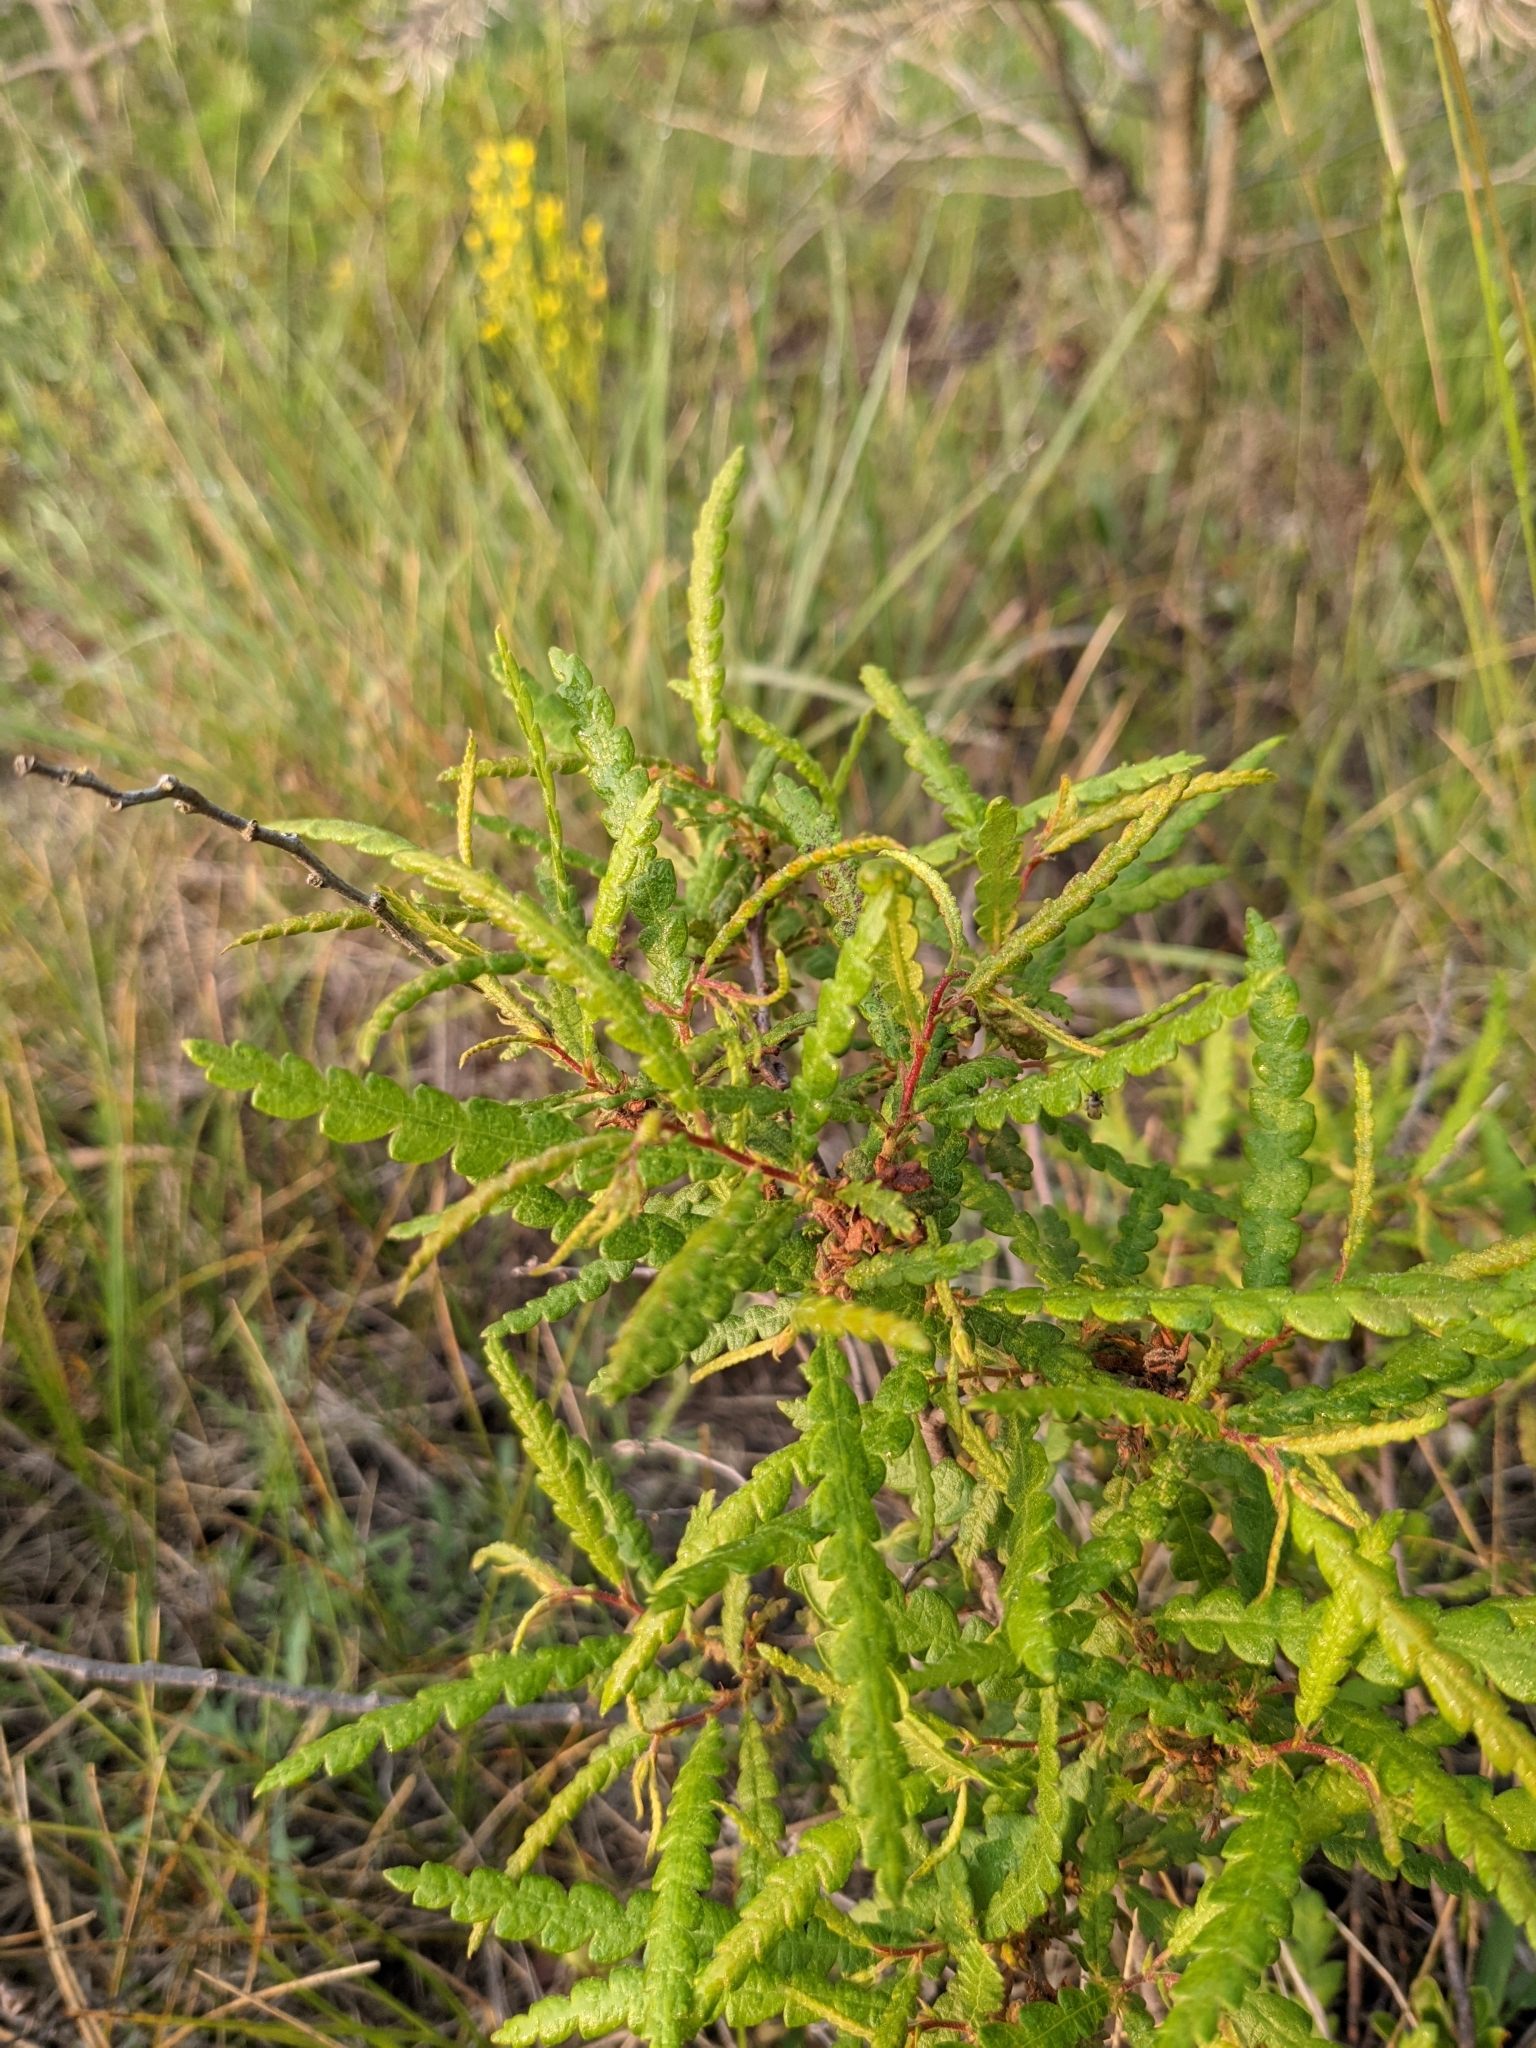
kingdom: Plantae
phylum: Tracheophyta
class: Magnoliopsida
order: Fagales
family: Myricaceae
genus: Comptonia
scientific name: Comptonia peregrina
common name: Sweet-fern
